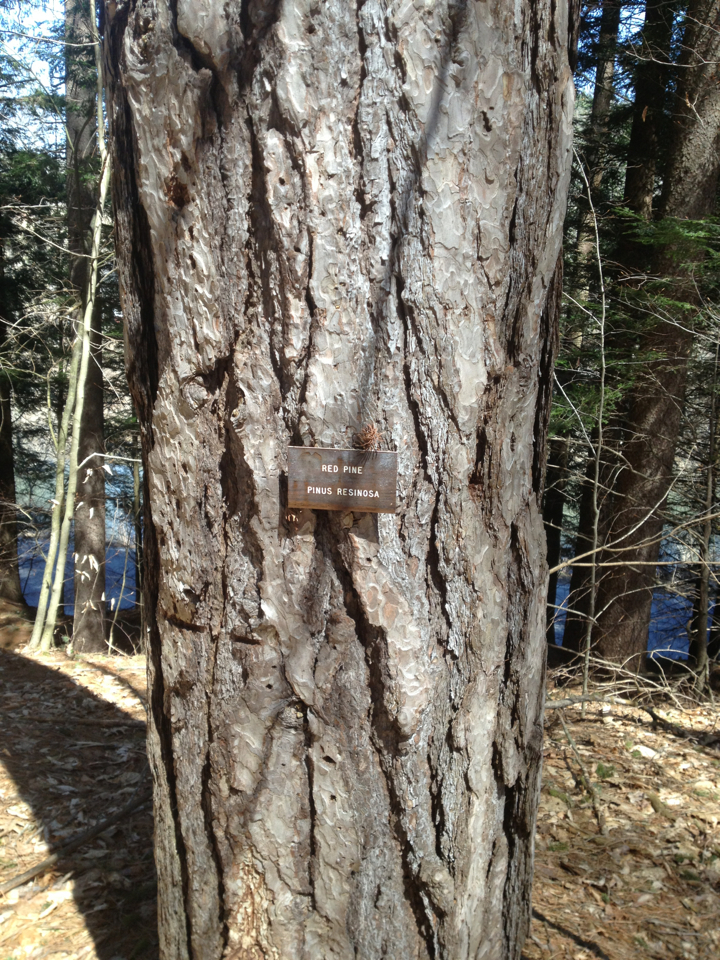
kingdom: Plantae
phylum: Tracheophyta
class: Pinopsida
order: Pinales
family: Pinaceae
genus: Pinus
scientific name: Pinus resinosa
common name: Norway pine
